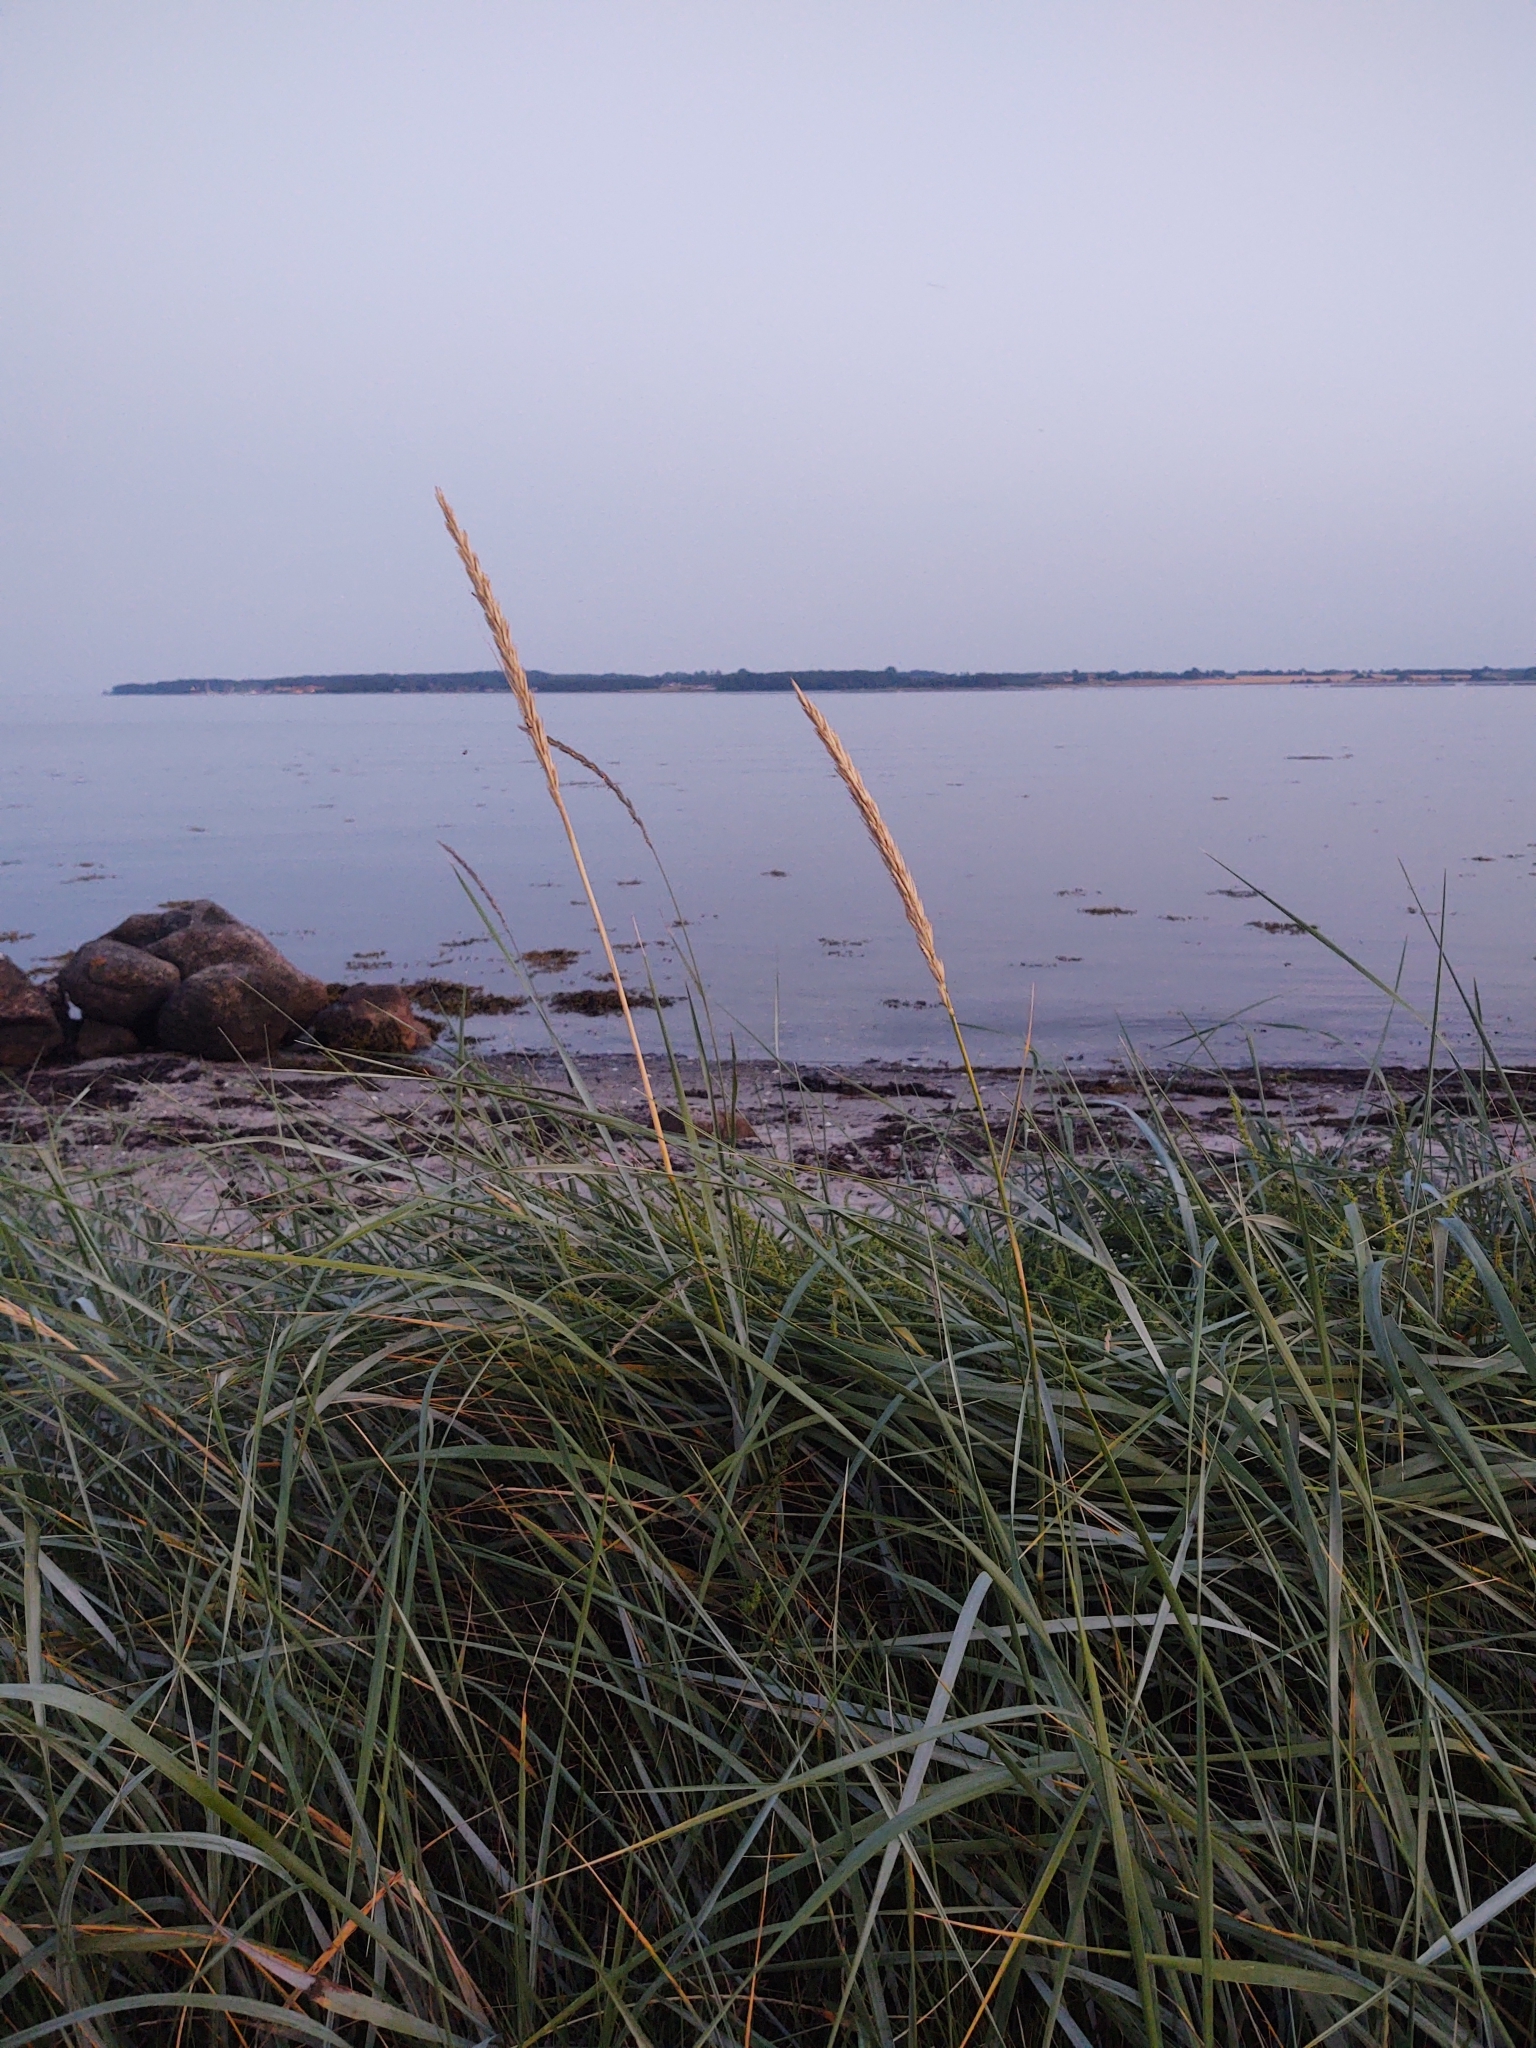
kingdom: Plantae
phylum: Tracheophyta
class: Liliopsida
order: Poales
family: Poaceae
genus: Leymus
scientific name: Leymus arenarius
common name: Lyme-grass
